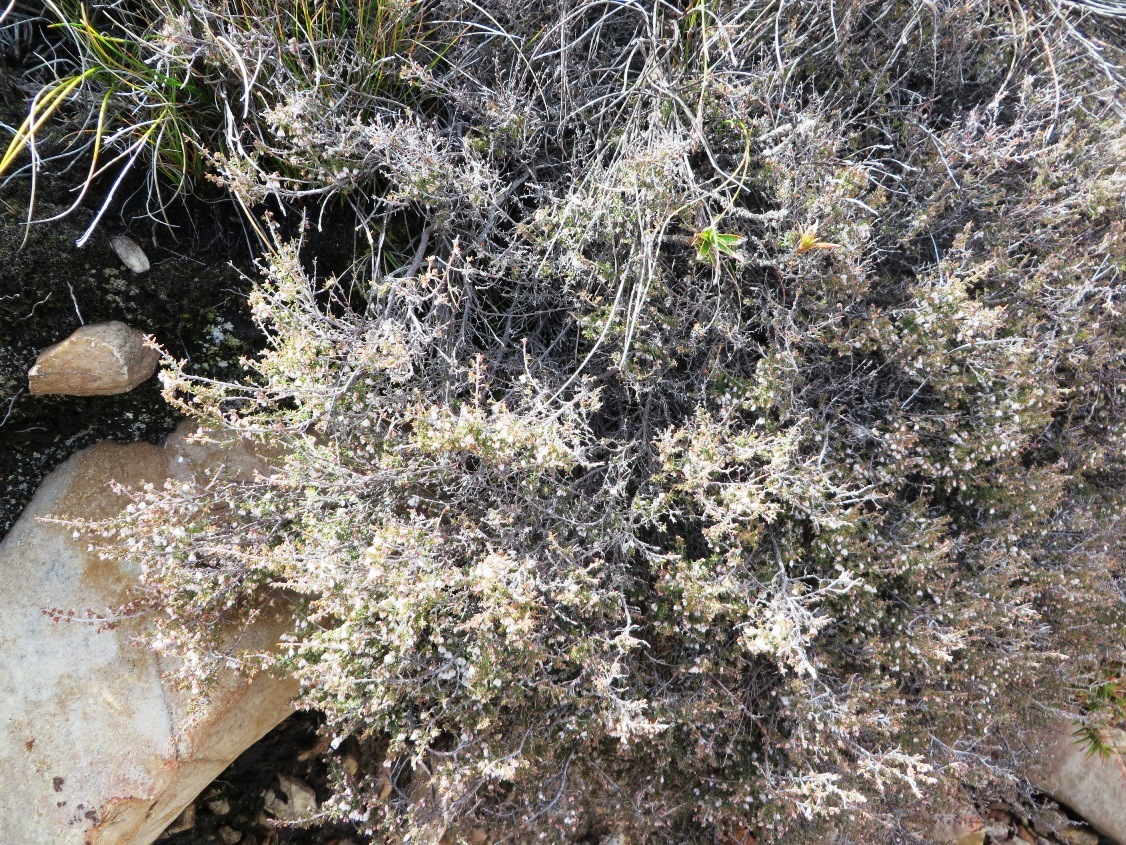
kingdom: Plantae
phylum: Tracheophyta
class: Magnoliopsida
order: Ericales
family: Ericaceae
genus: Erica
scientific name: Erica eremioides
